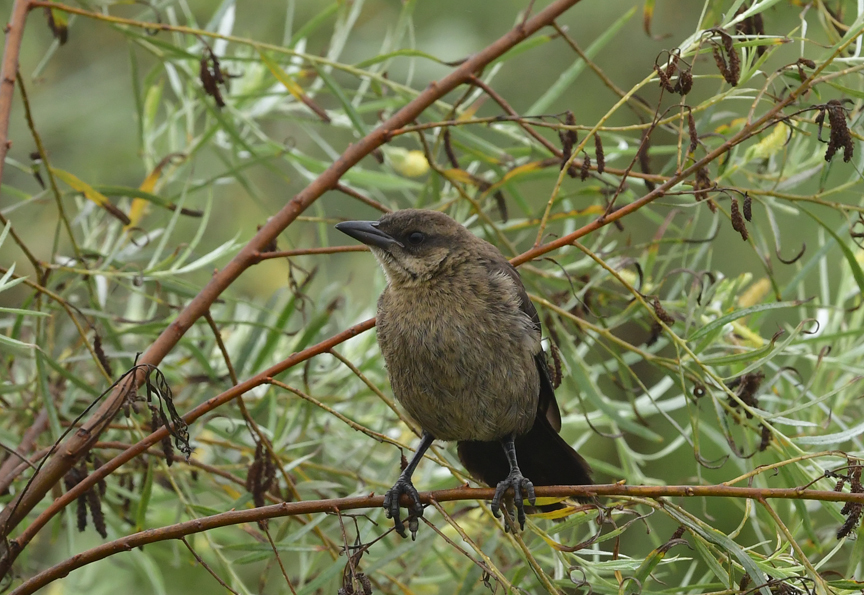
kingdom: Animalia
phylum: Chordata
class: Aves
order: Passeriformes
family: Icteridae
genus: Quiscalus
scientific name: Quiscalus mexicanus
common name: Great-tailed grackle
